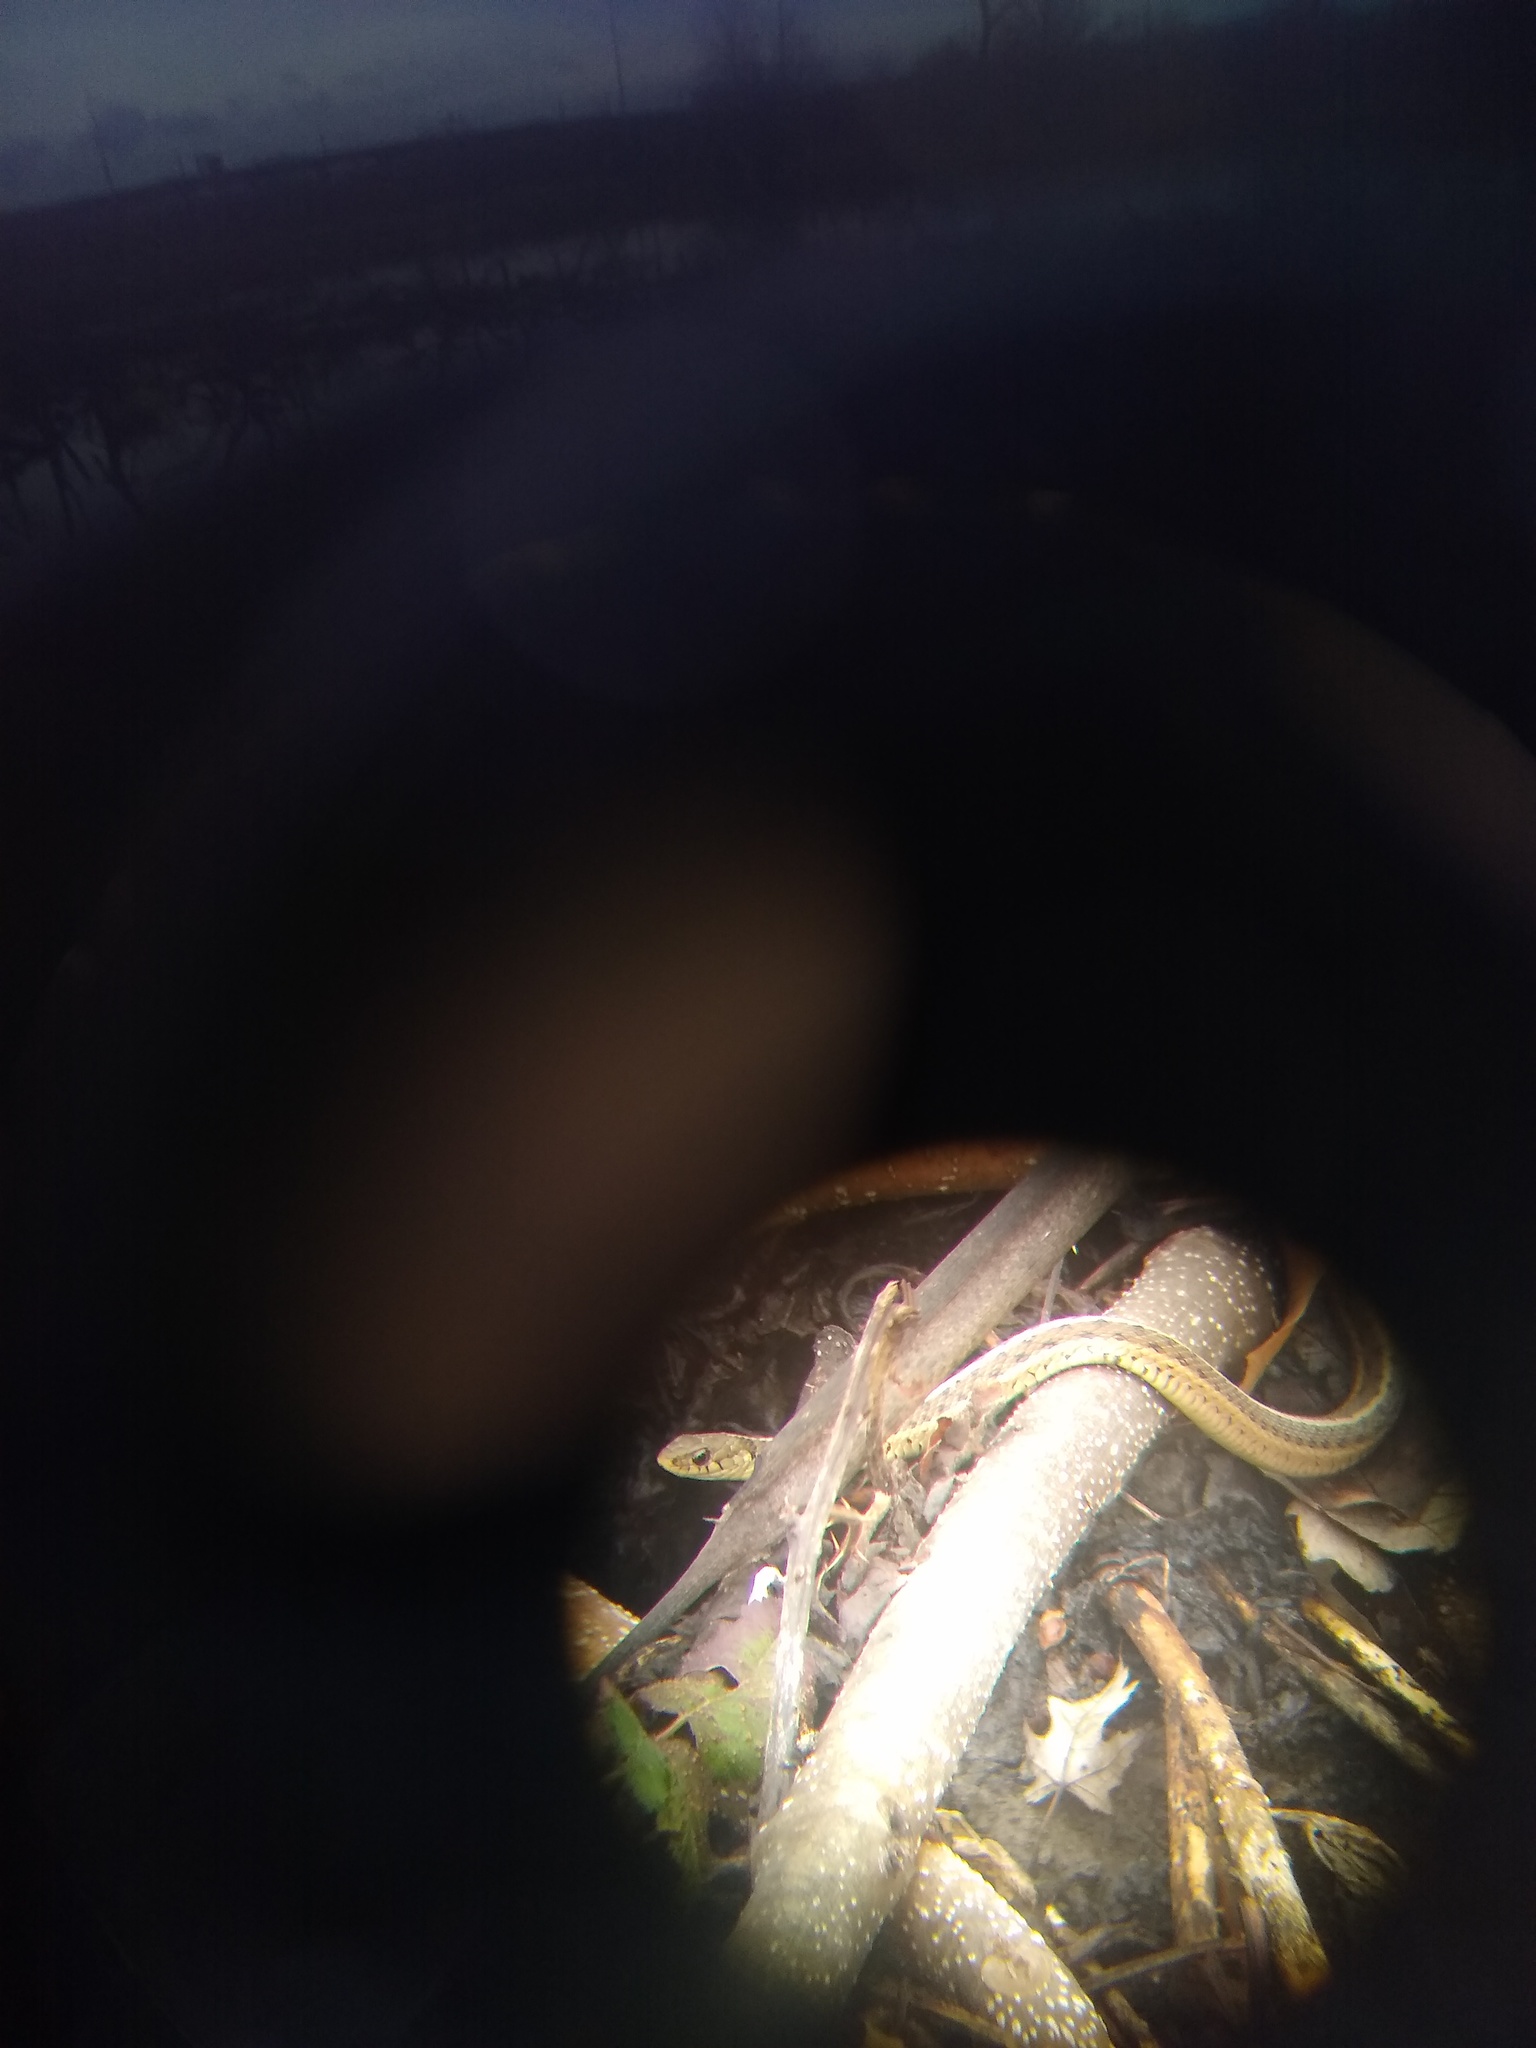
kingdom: Animalia
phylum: Chordata
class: Squamata
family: Colubridae
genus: Thamnophis
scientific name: Thamnophis sirtalis
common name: Common garter snake
